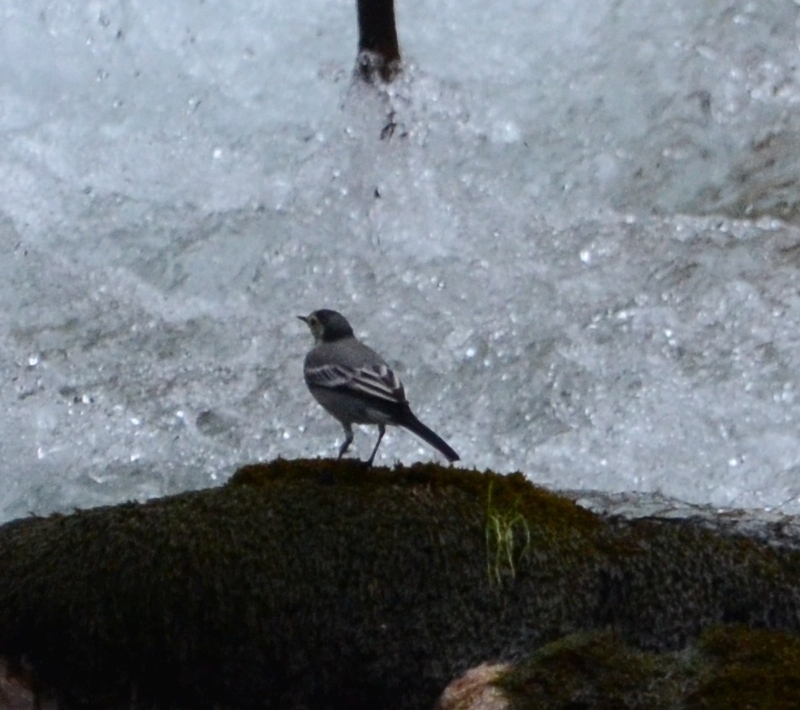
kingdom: Animalia
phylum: Chordata
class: Aves
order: Passeriformes
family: Motacillidae
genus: Motacilla
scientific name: Motacilla alba
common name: White wagtail
